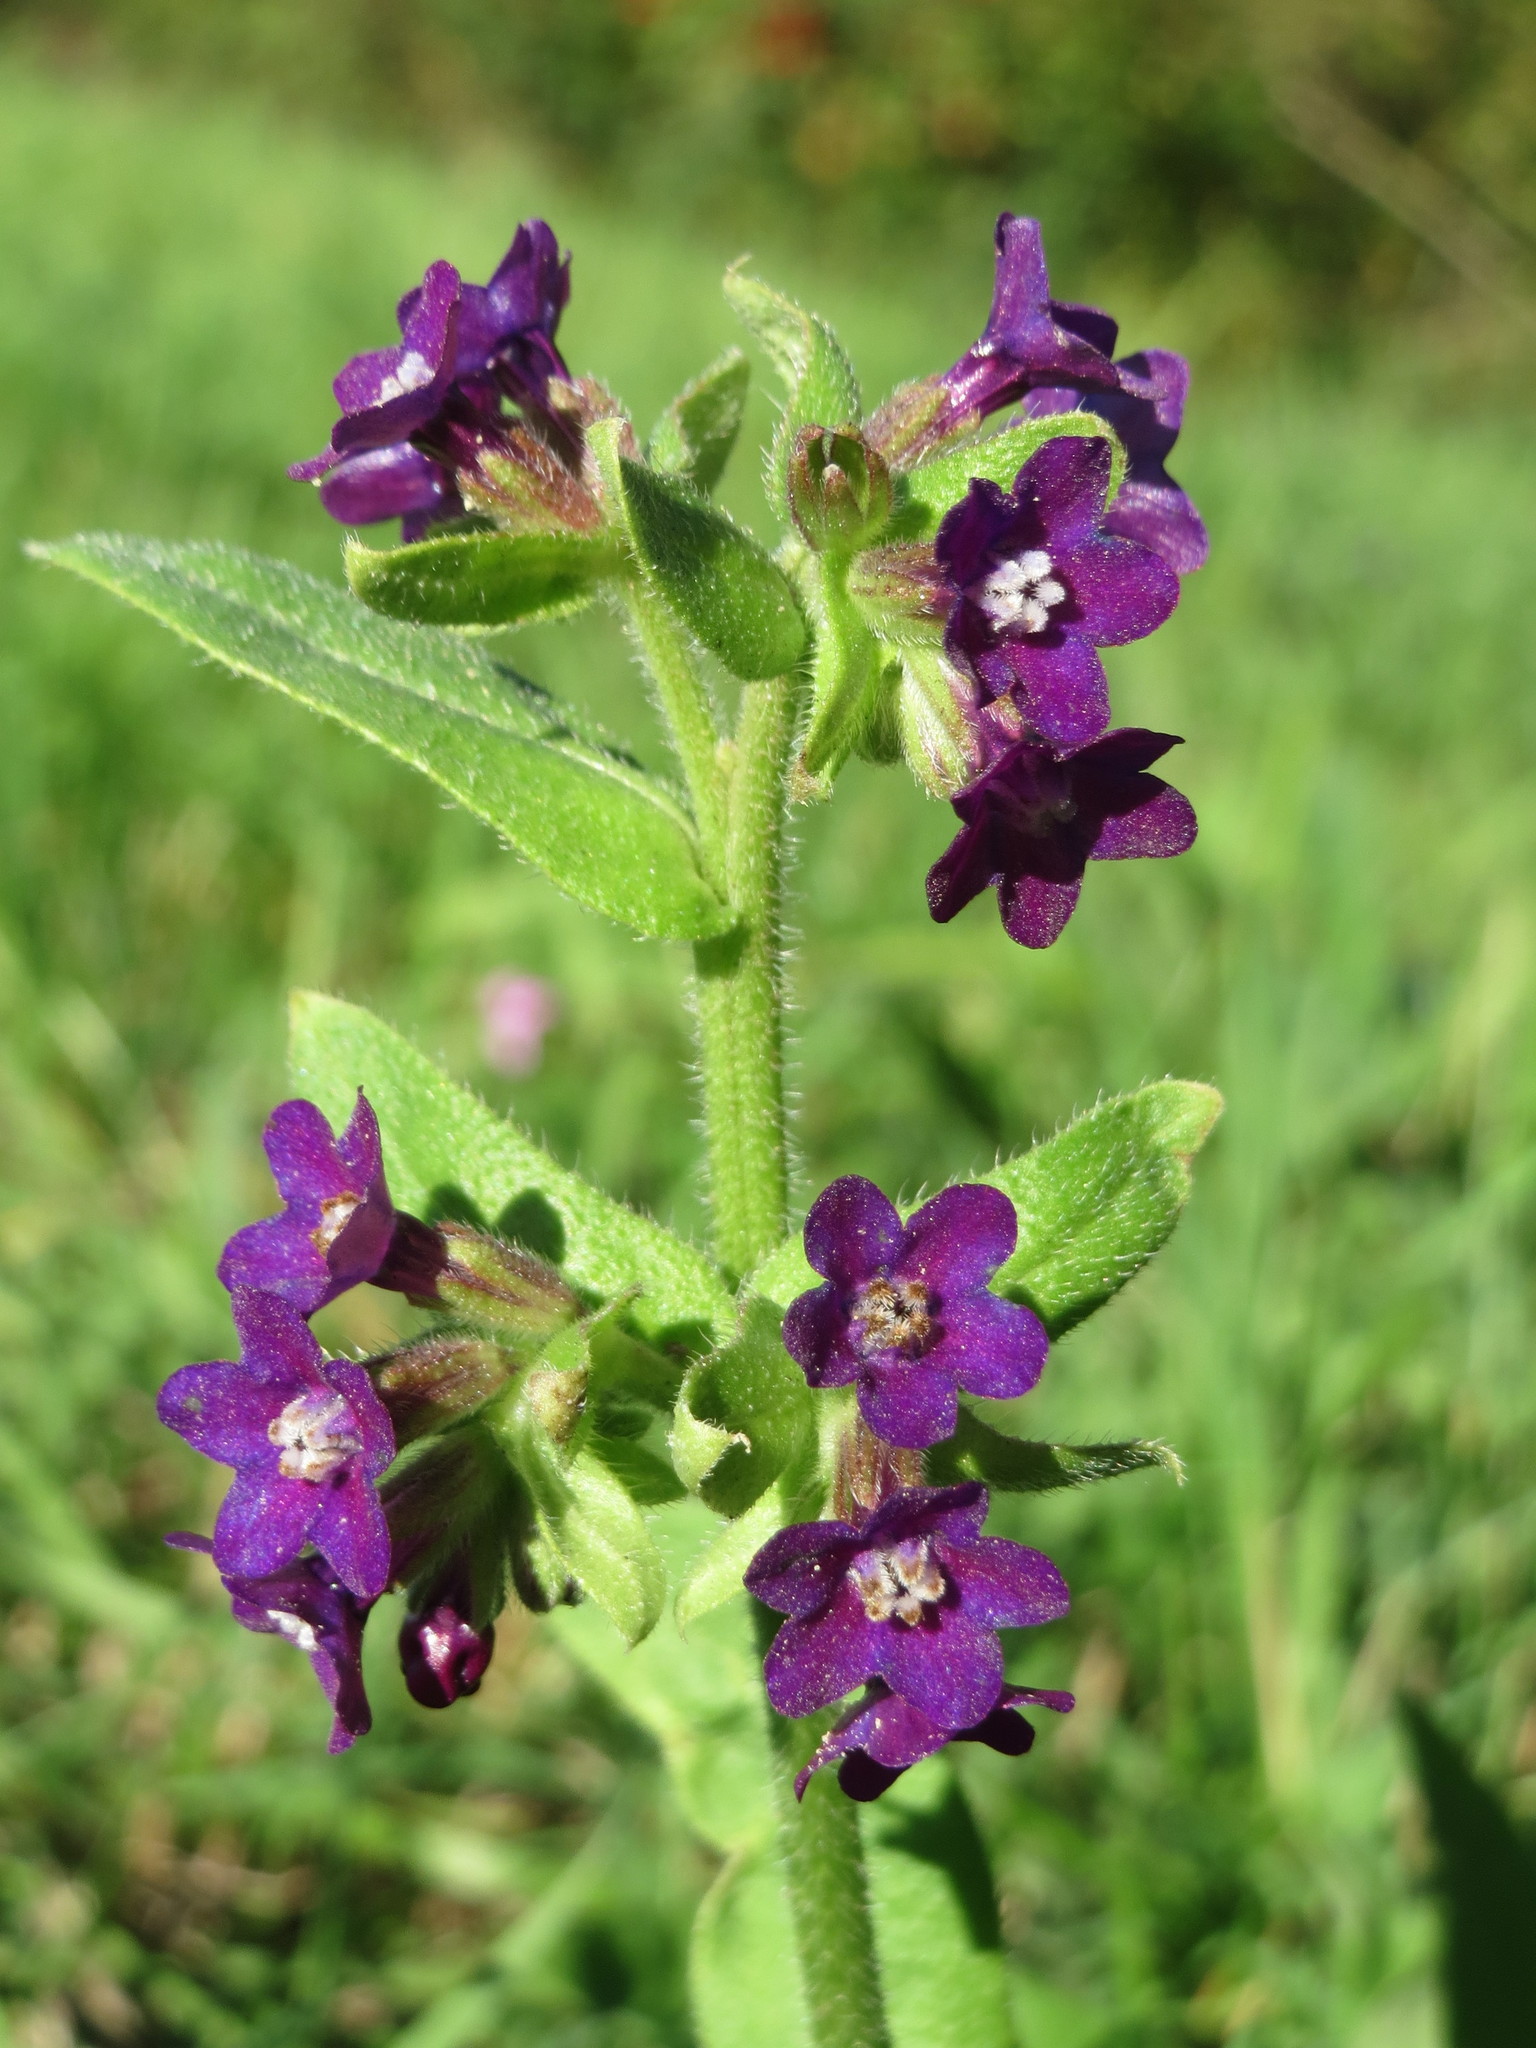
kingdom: Plantae
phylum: Tracheophyta
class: Magnoliopsida
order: Boraginales
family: Boraginaceae
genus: Anchusa
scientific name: Anchusa officinalis
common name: Alkanet
